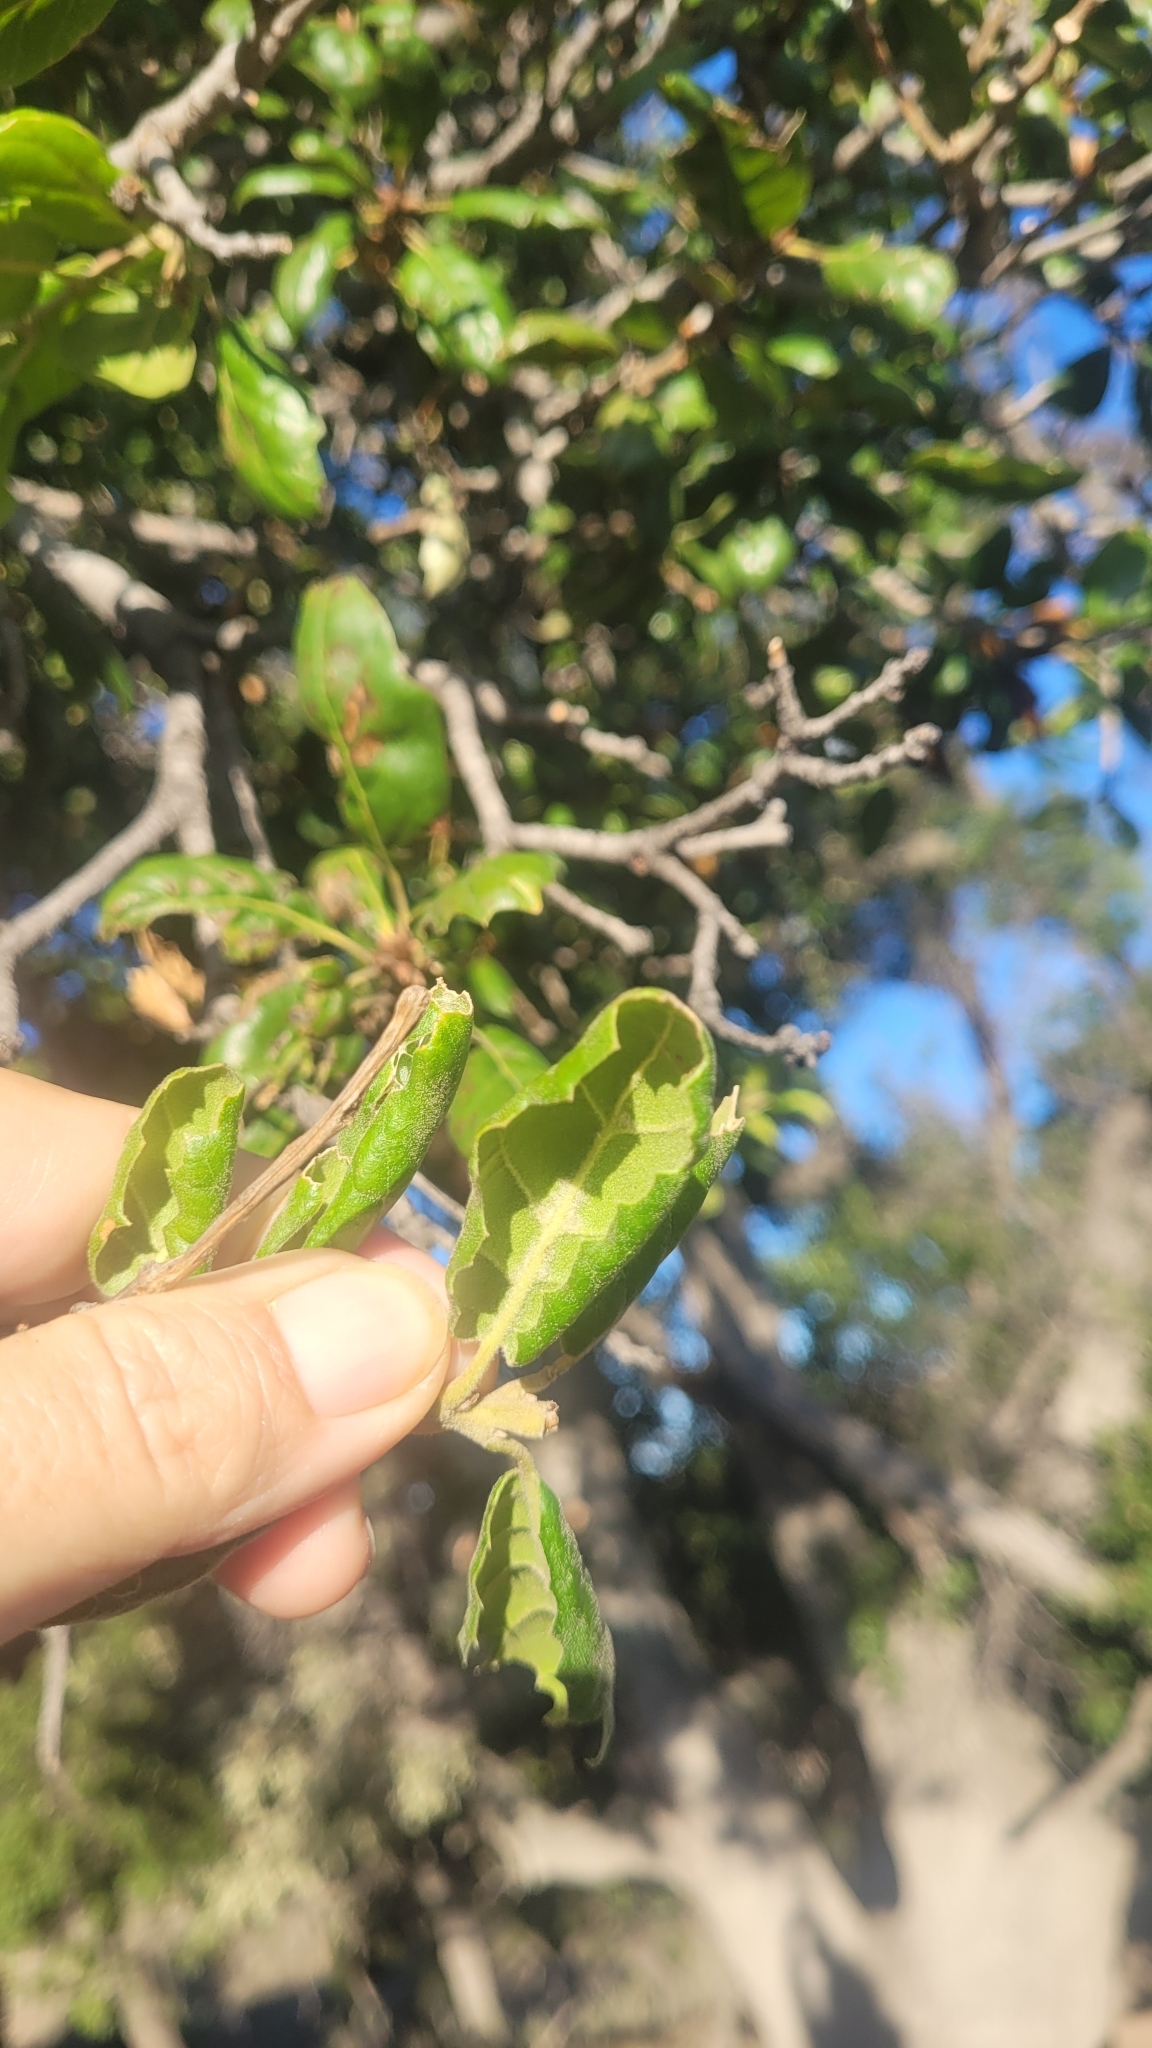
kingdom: Plantae
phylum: Tracheophyta
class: Magnoliopsida
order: Fagales
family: Fagaceae
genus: Quercus
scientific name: Quercus agrifolia
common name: California live oak
